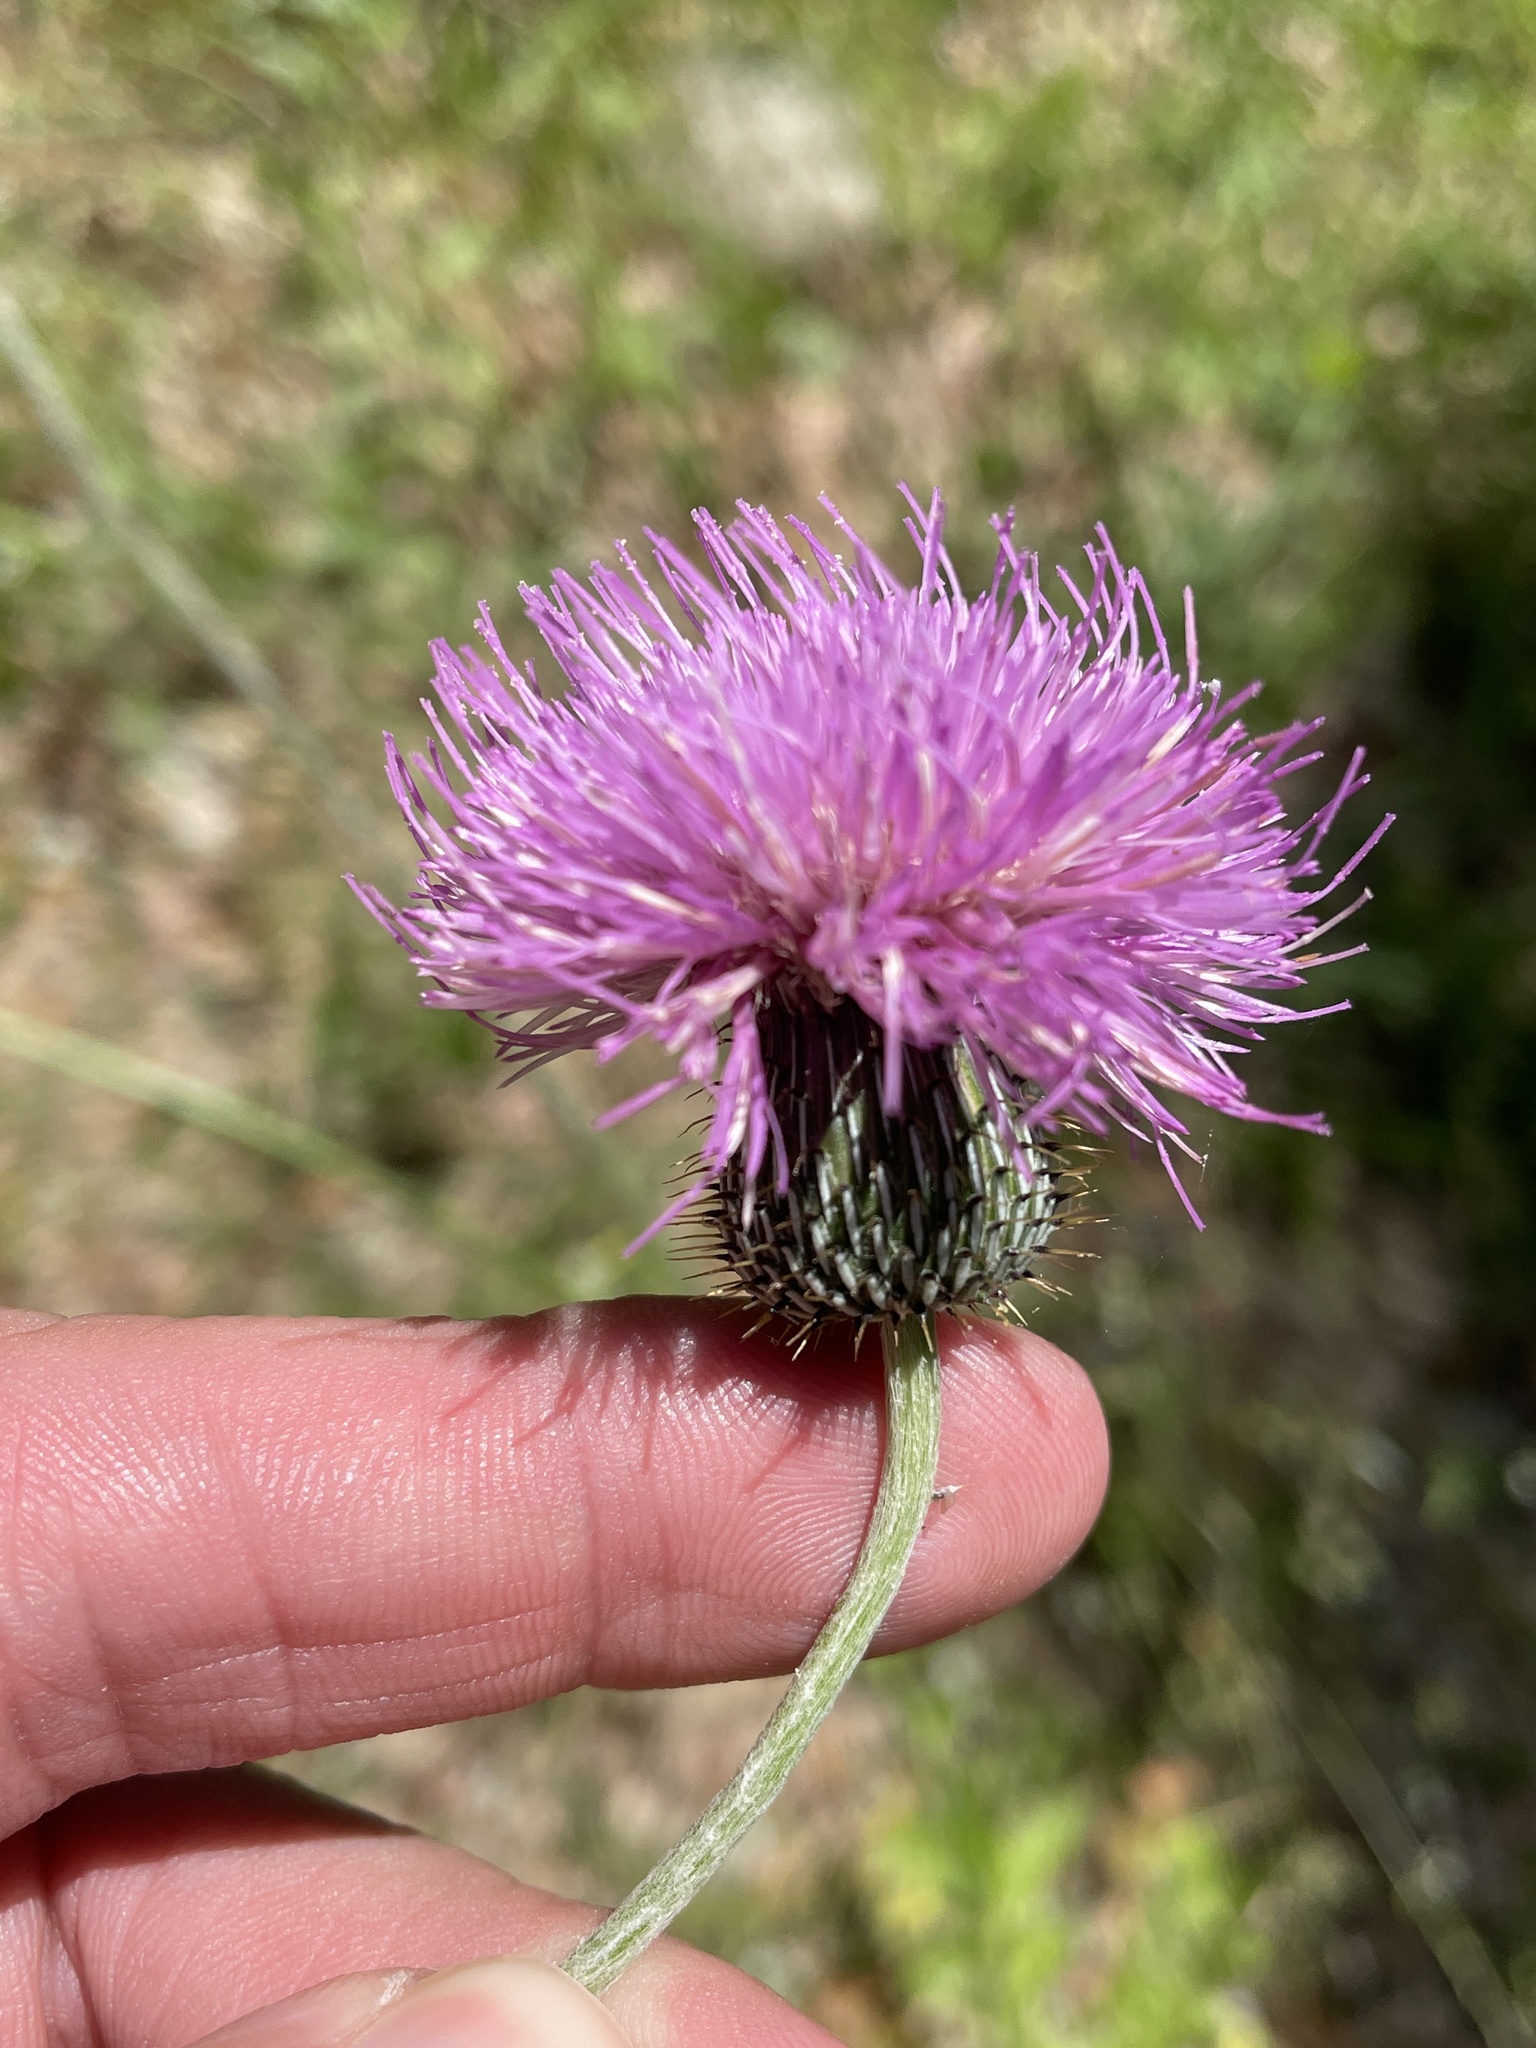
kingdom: Plantae
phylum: Tracheophyta
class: Magnoliopsida
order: Asterales
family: Asteraceae
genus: Cirsium
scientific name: Cirsium texanum
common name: Texas purple thistle
